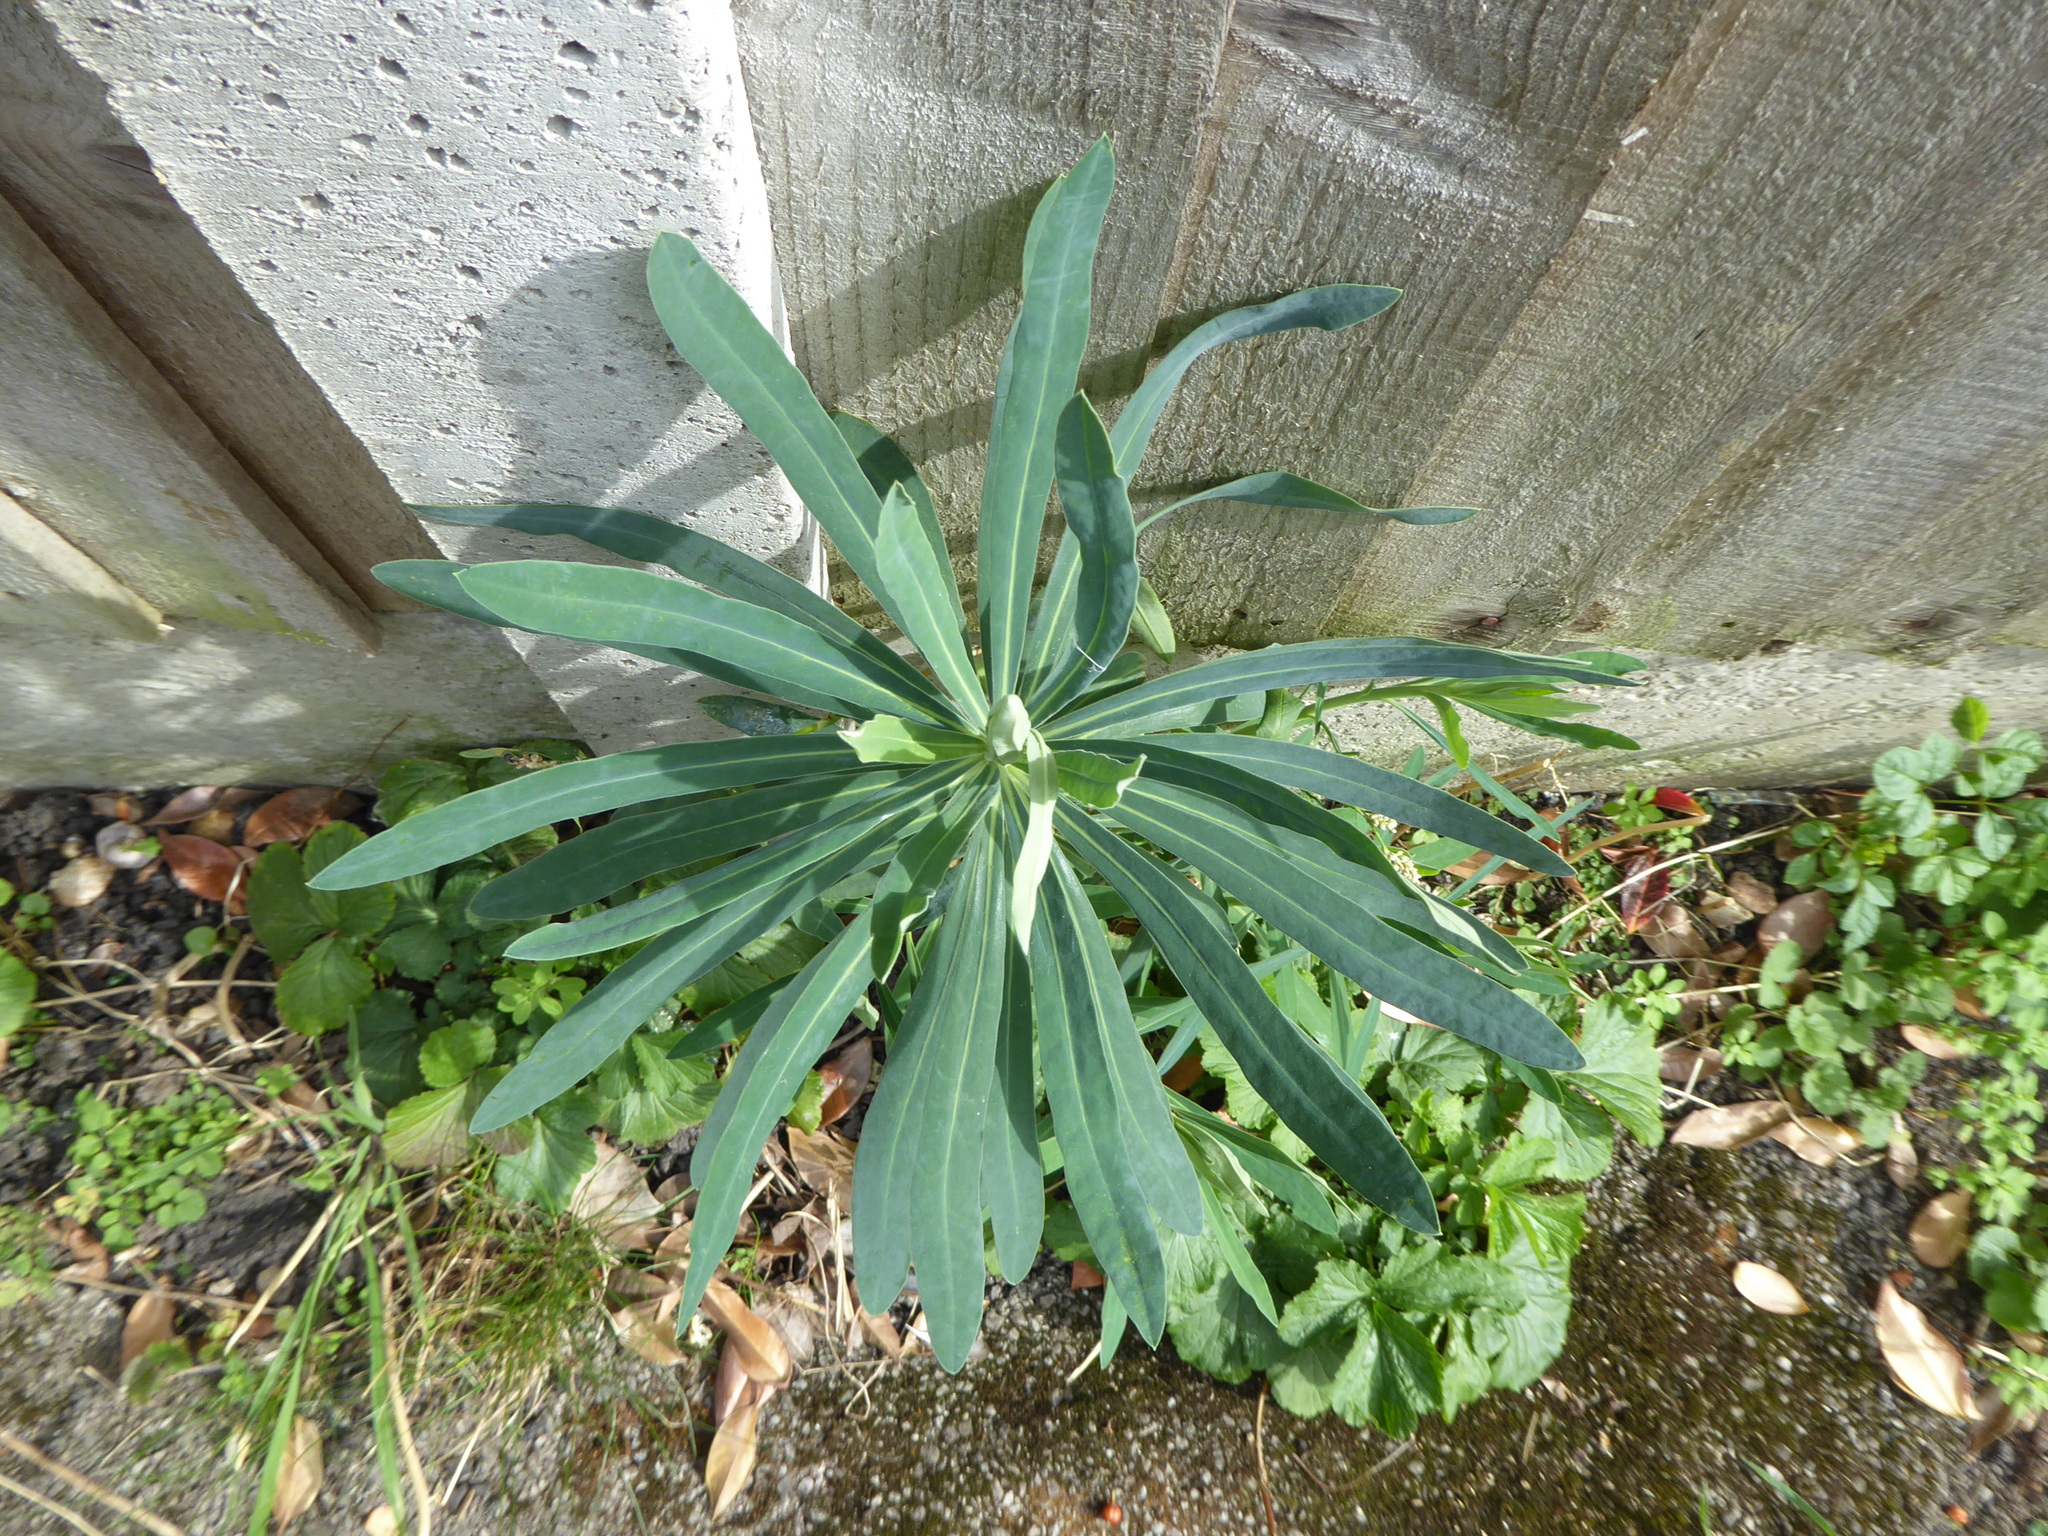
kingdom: Plantae
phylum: Tracheophyta
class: Magnoliopsida
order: Malpighiales
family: Euphorbiaceae
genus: Euphorbia
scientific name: Euphorbia characias
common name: Mediterranean spurge
